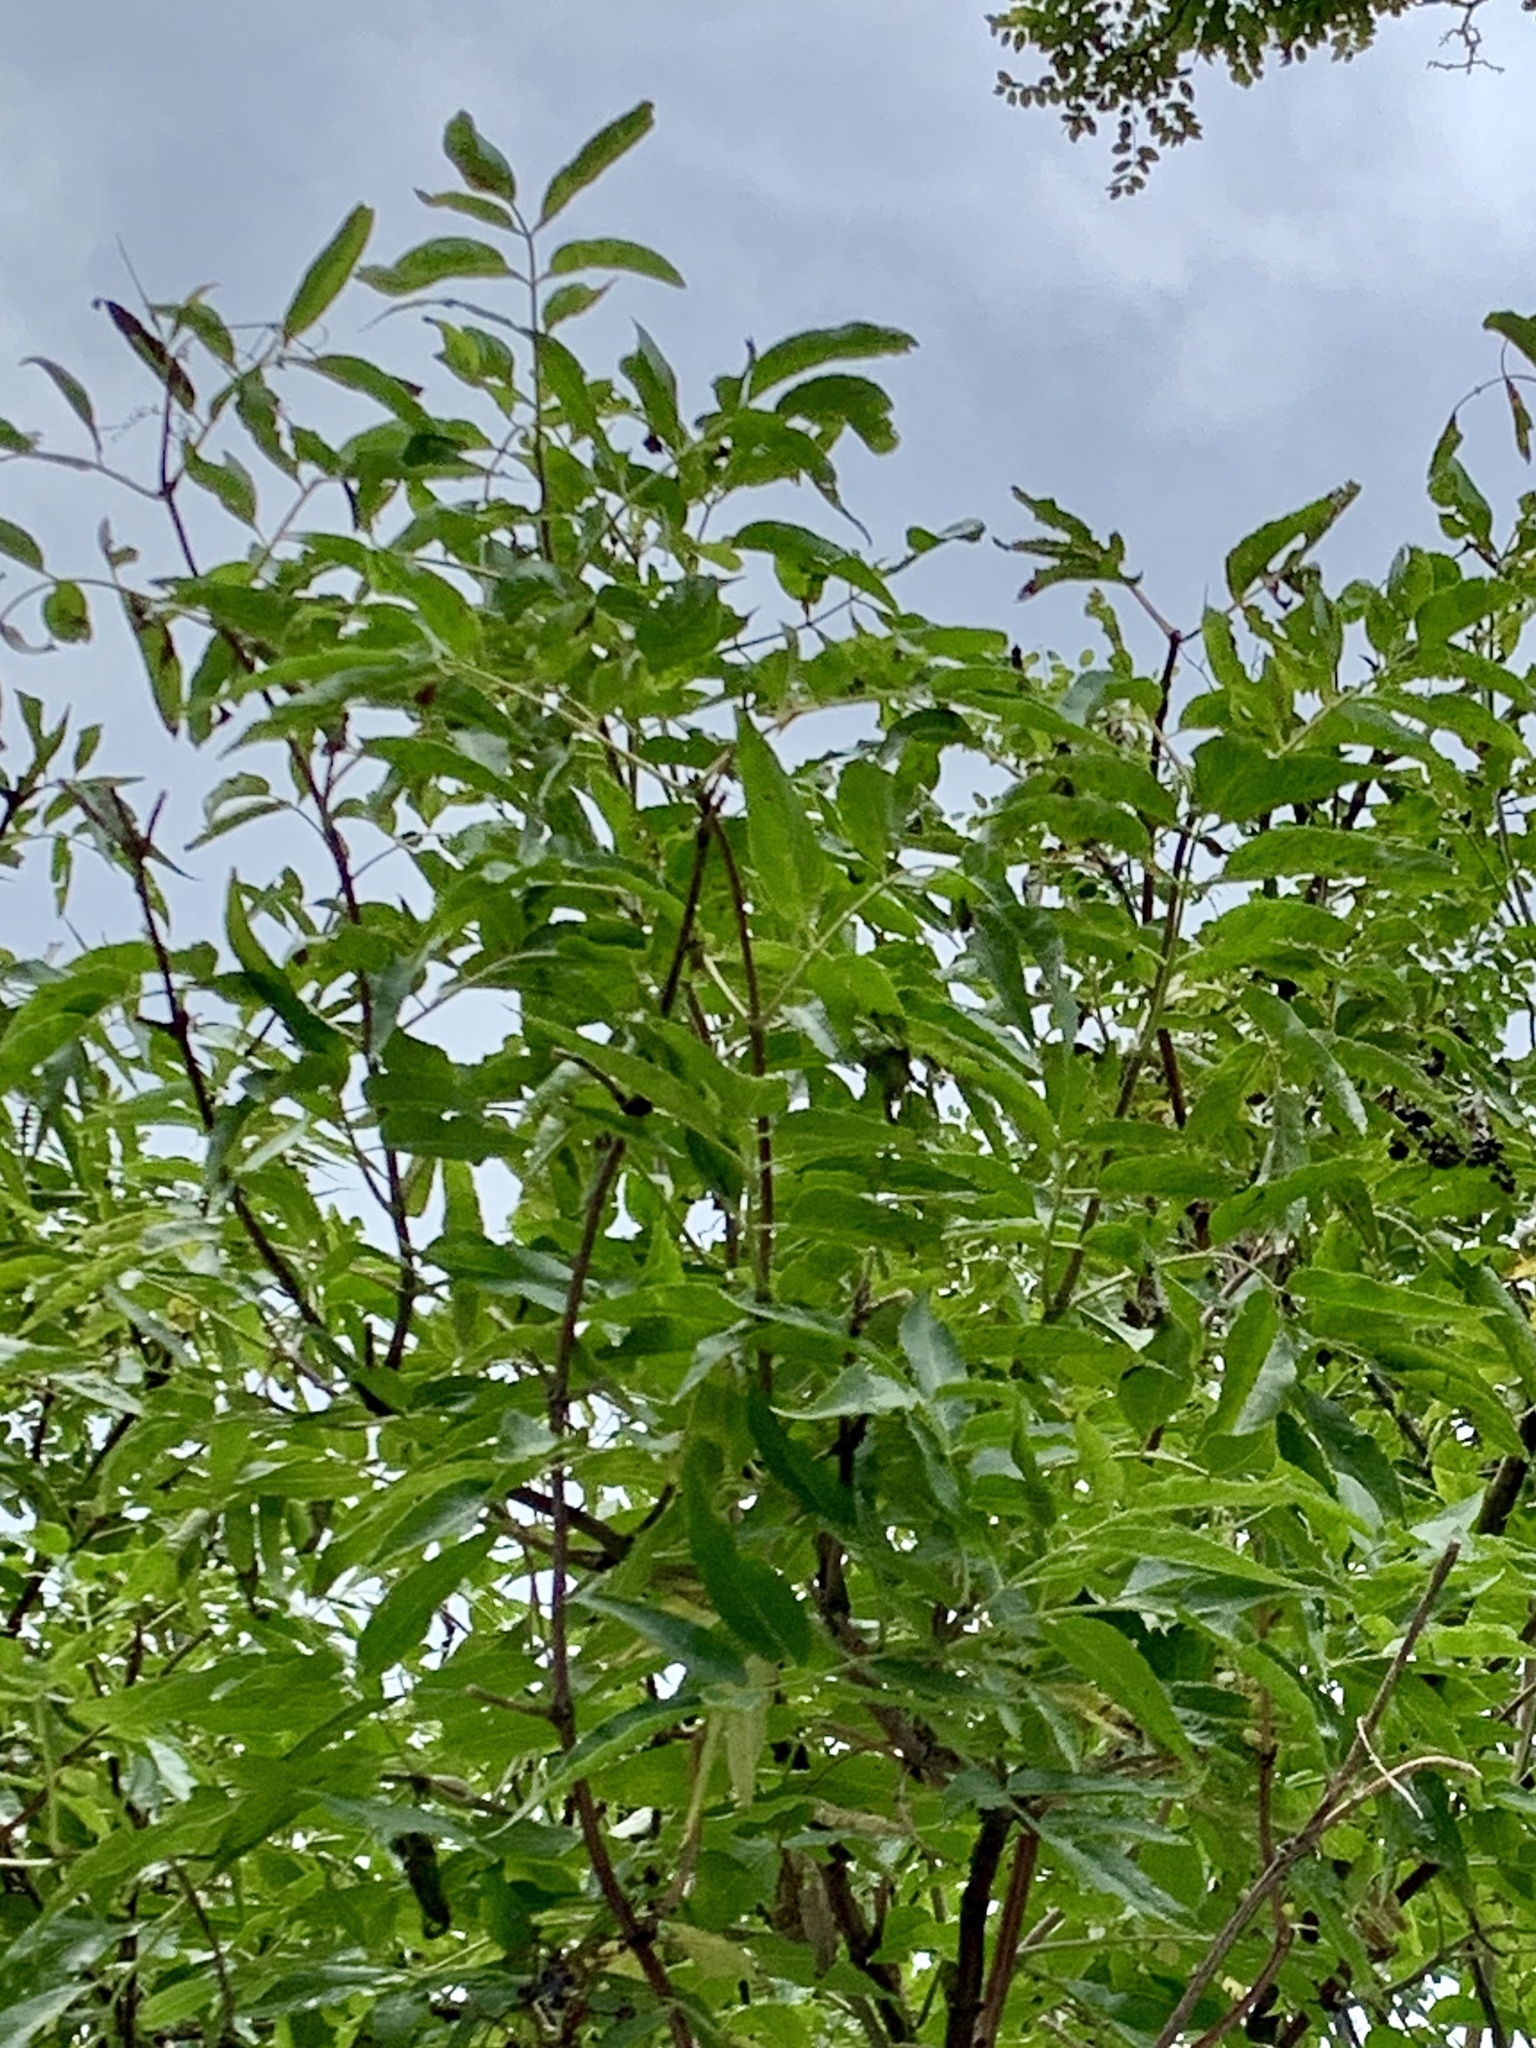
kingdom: Plantae
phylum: Tracheophyta
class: Magnoliopsida
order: Dipsacales
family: Viburnaceae
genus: Sambucus
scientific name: Sambucus cerulea
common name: Blue elder
